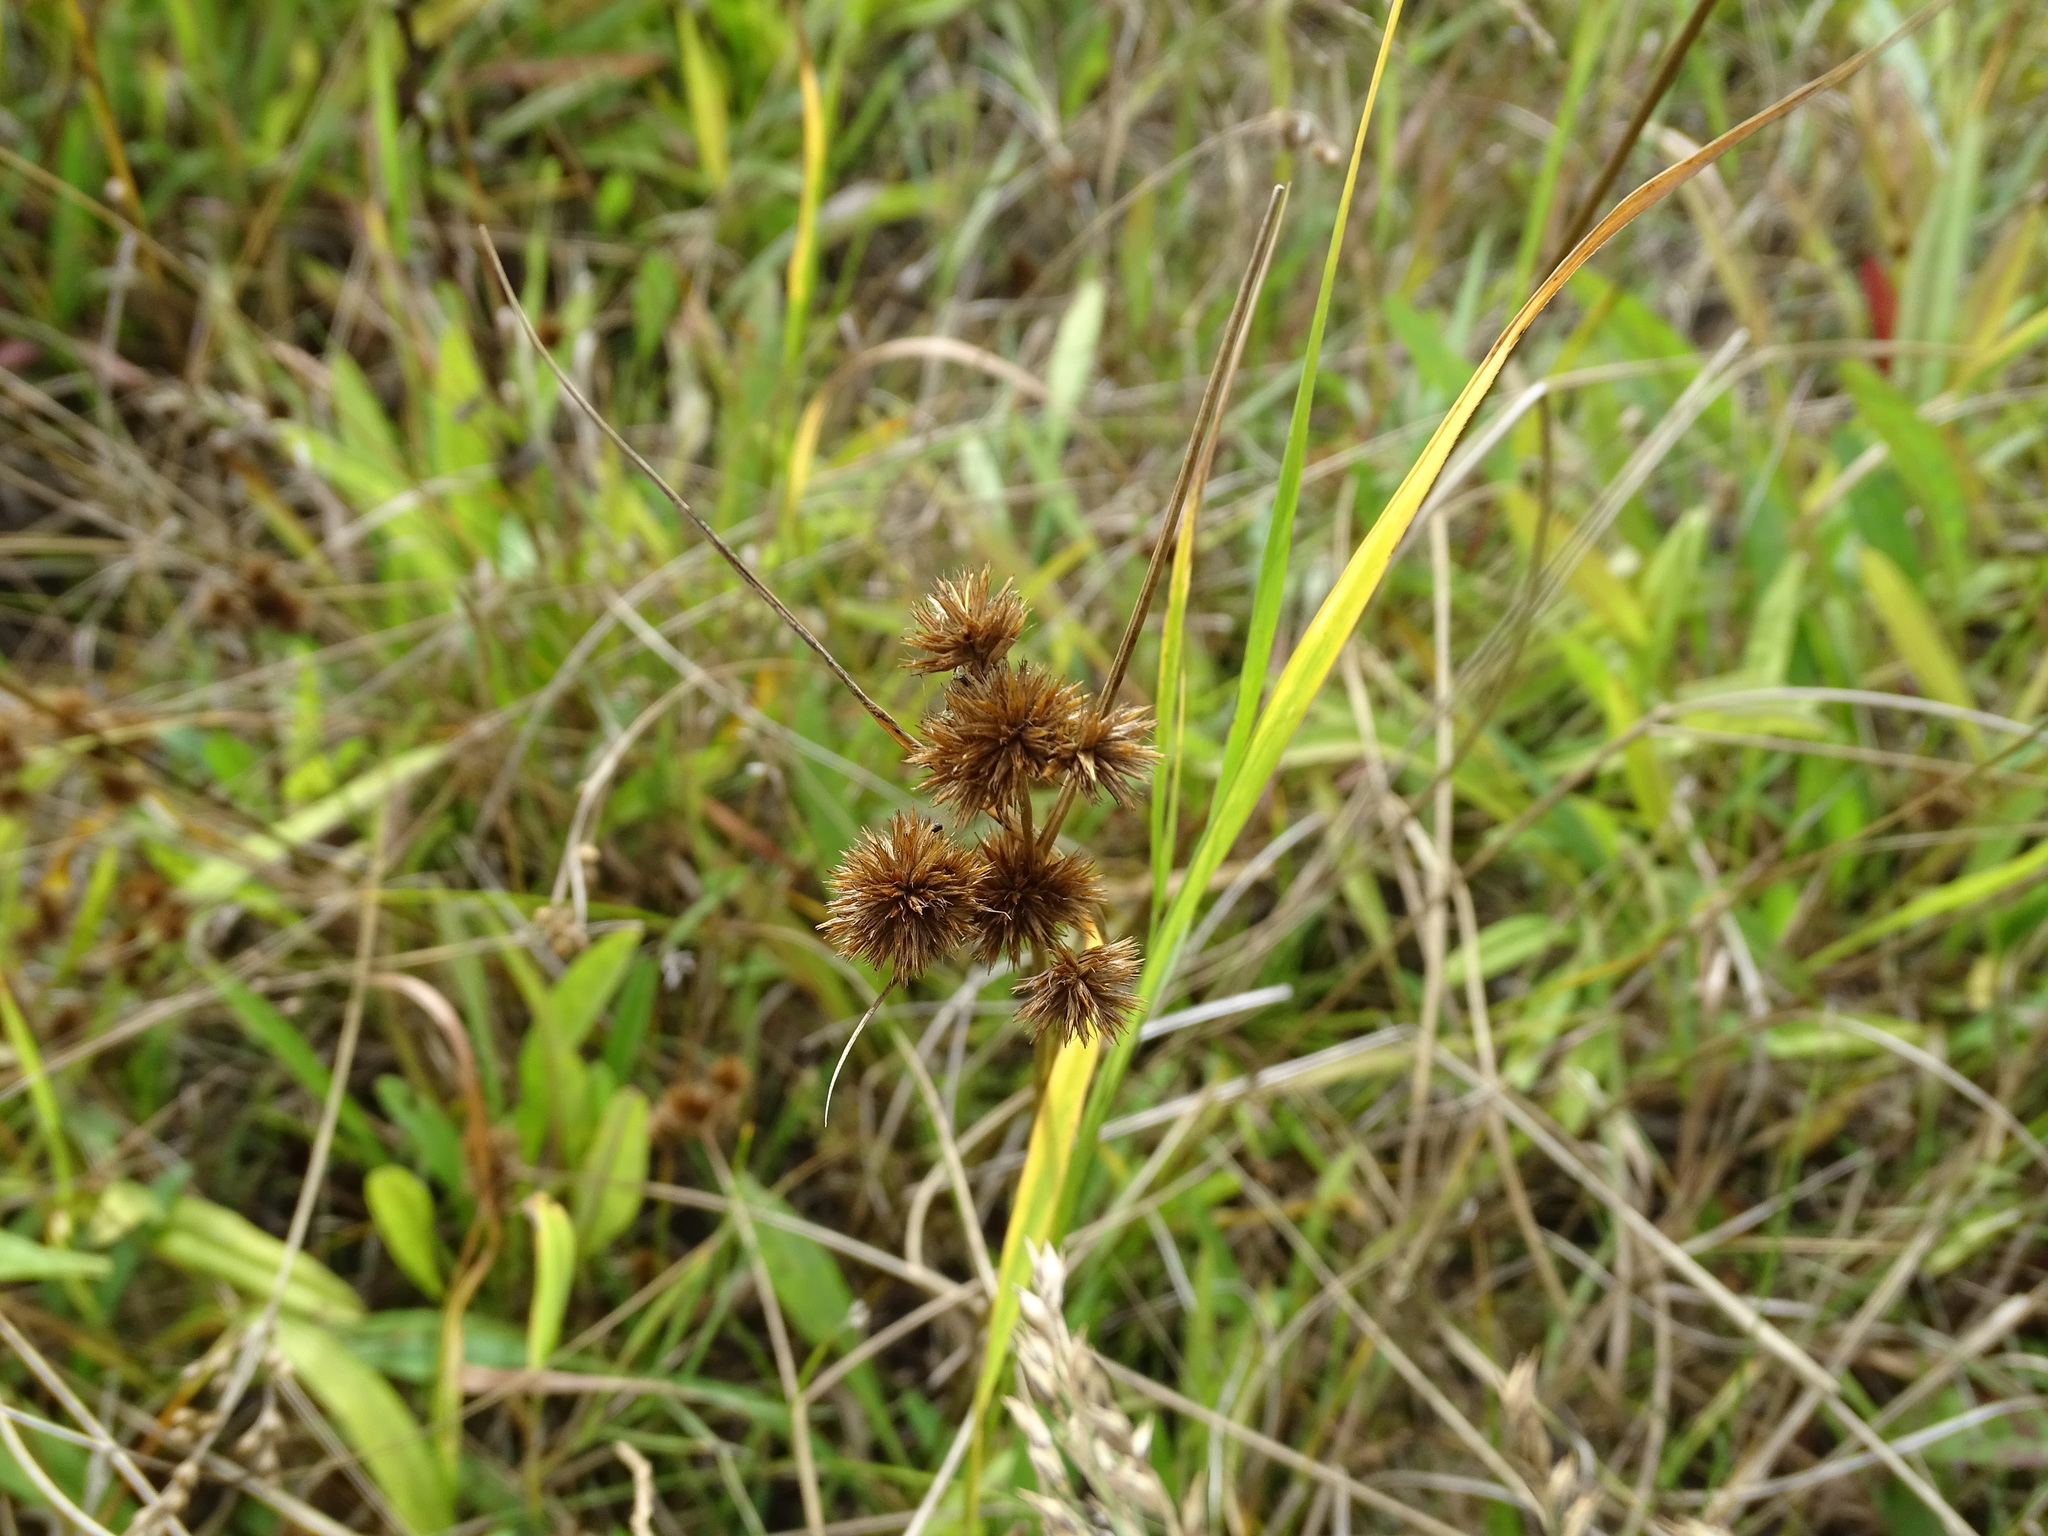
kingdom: Plantae
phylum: Tracheophyta
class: Liliopsida
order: Poales
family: Juncaceae
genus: Juncus
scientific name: Juncus torreyi
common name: Torrey's rush
